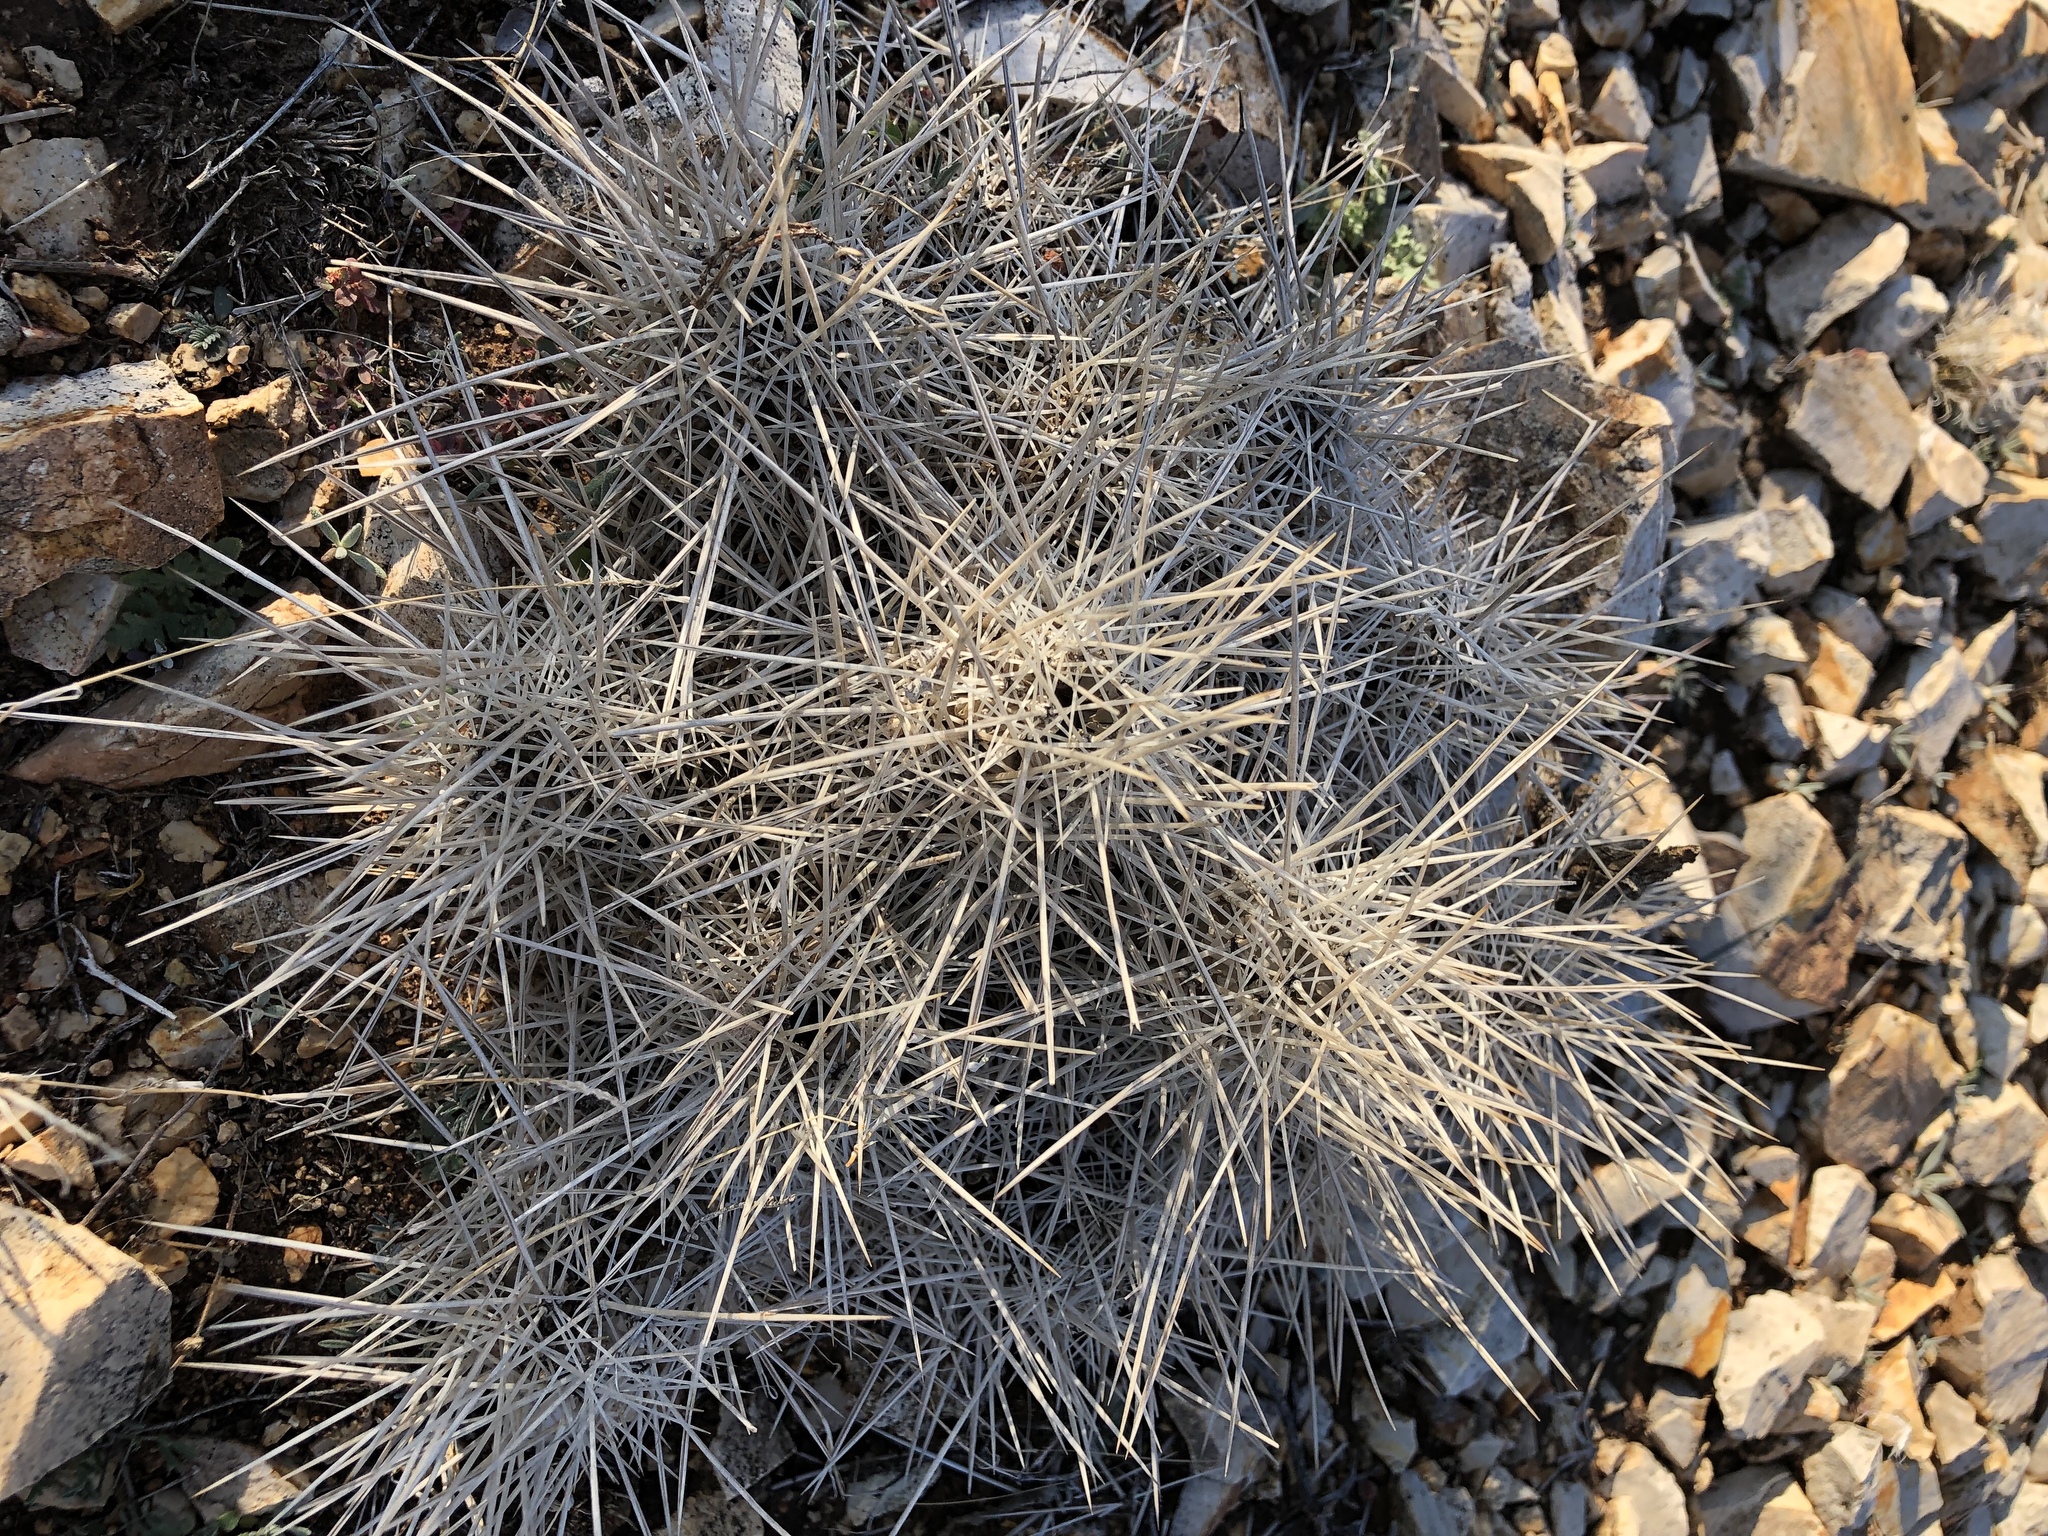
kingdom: Plantae
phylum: Tracheophyta
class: Magnoliopsida
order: Caryophyllales
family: Cactaceae
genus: Echinocereus
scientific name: Echinocereus stramineus
